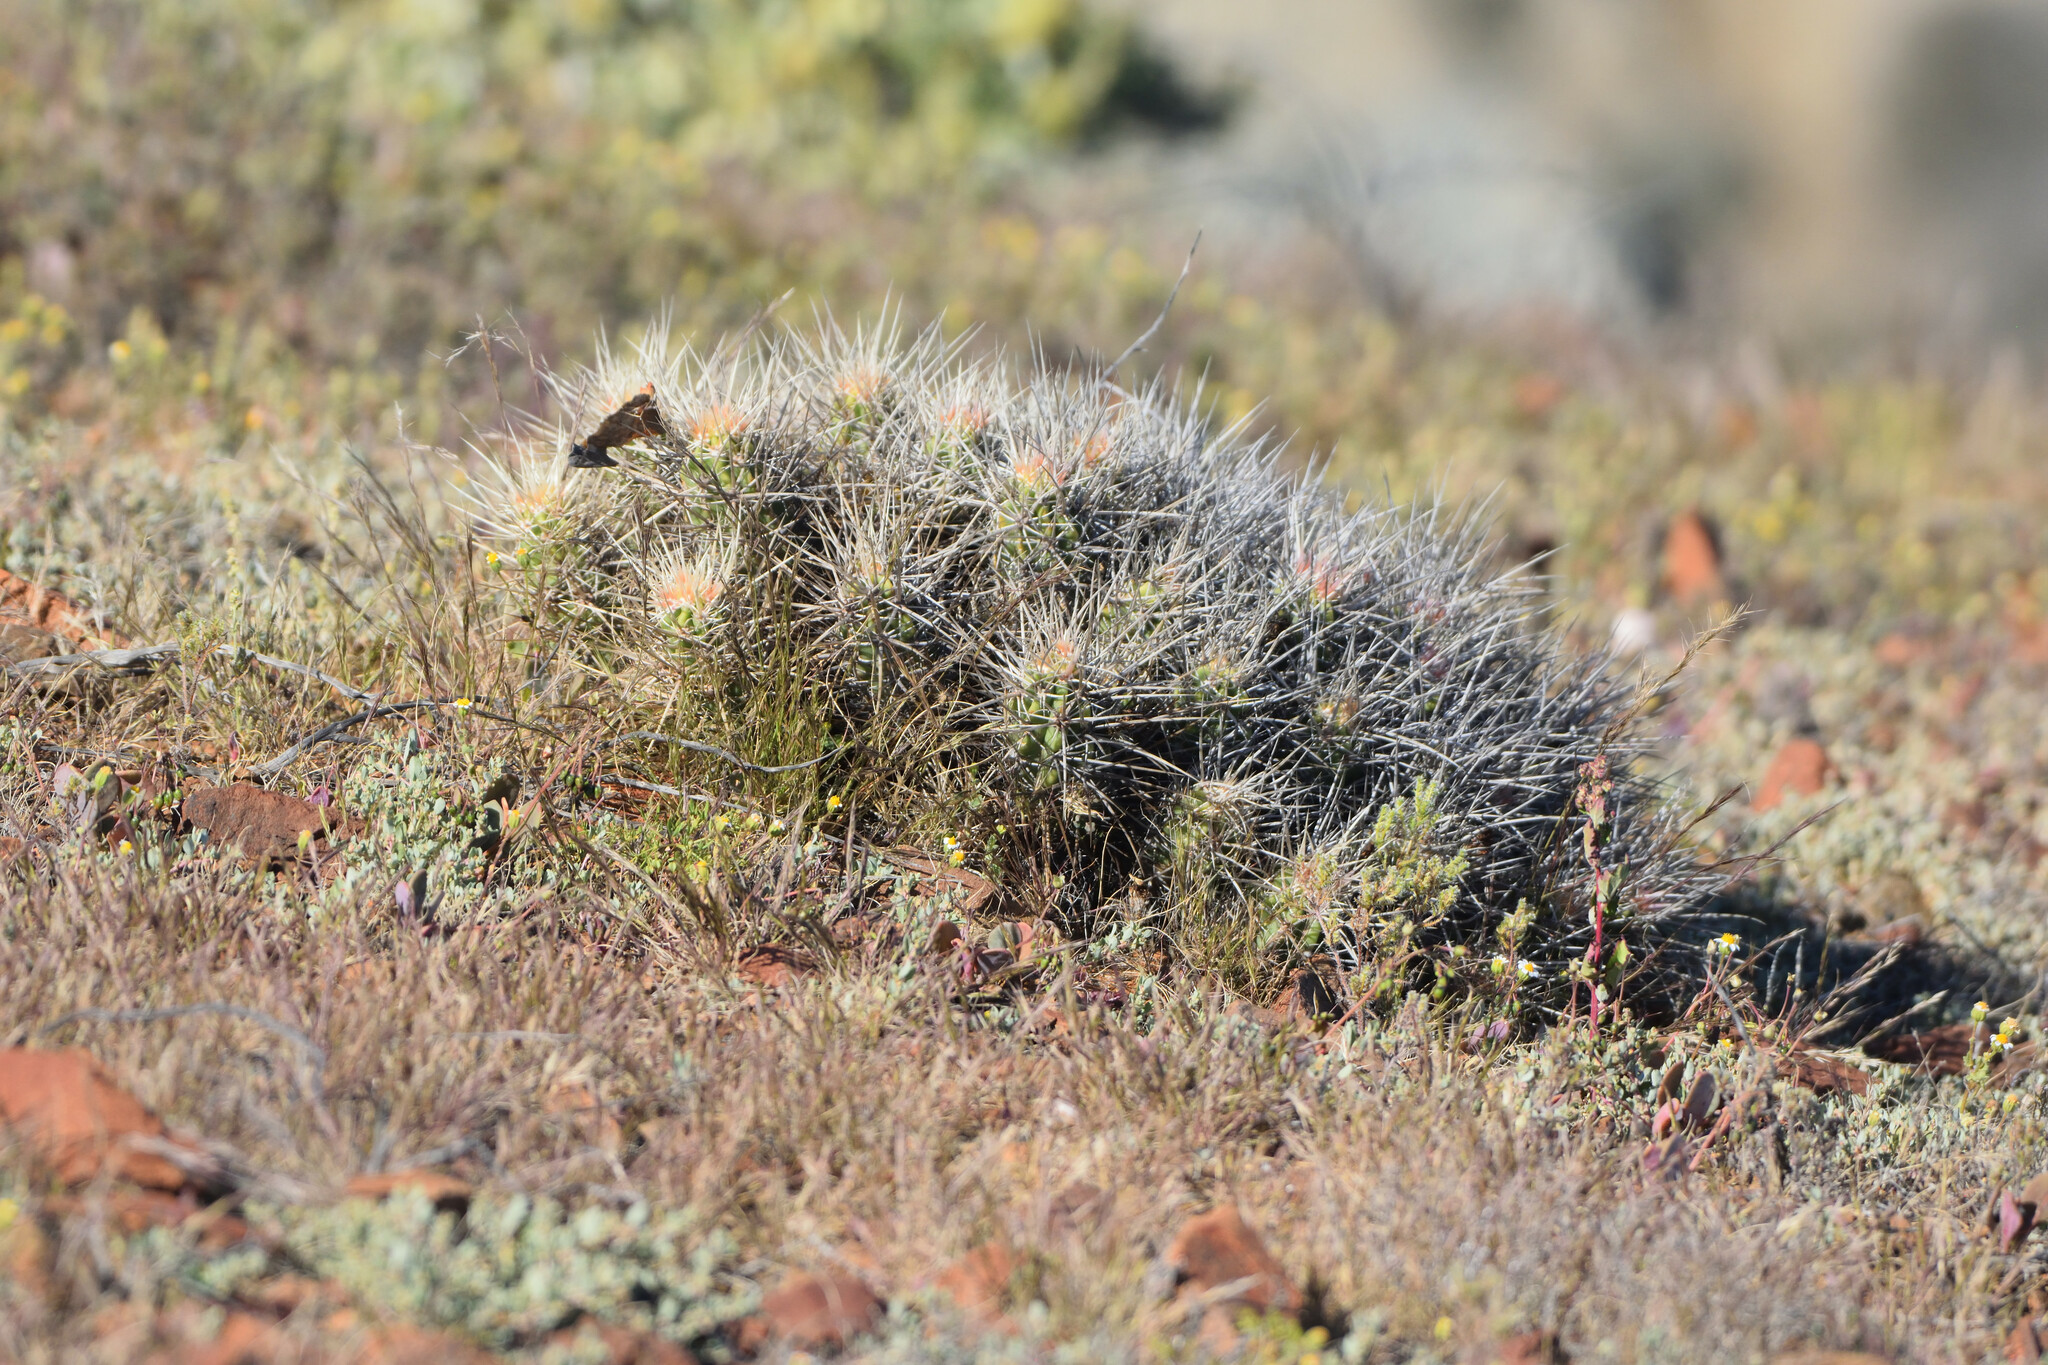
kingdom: Plantae
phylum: Tracheophyta
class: Magnoliopsida
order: Caryophyllales
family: Cactaceae
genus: Echinocereus
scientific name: Echinocereus maritimus
